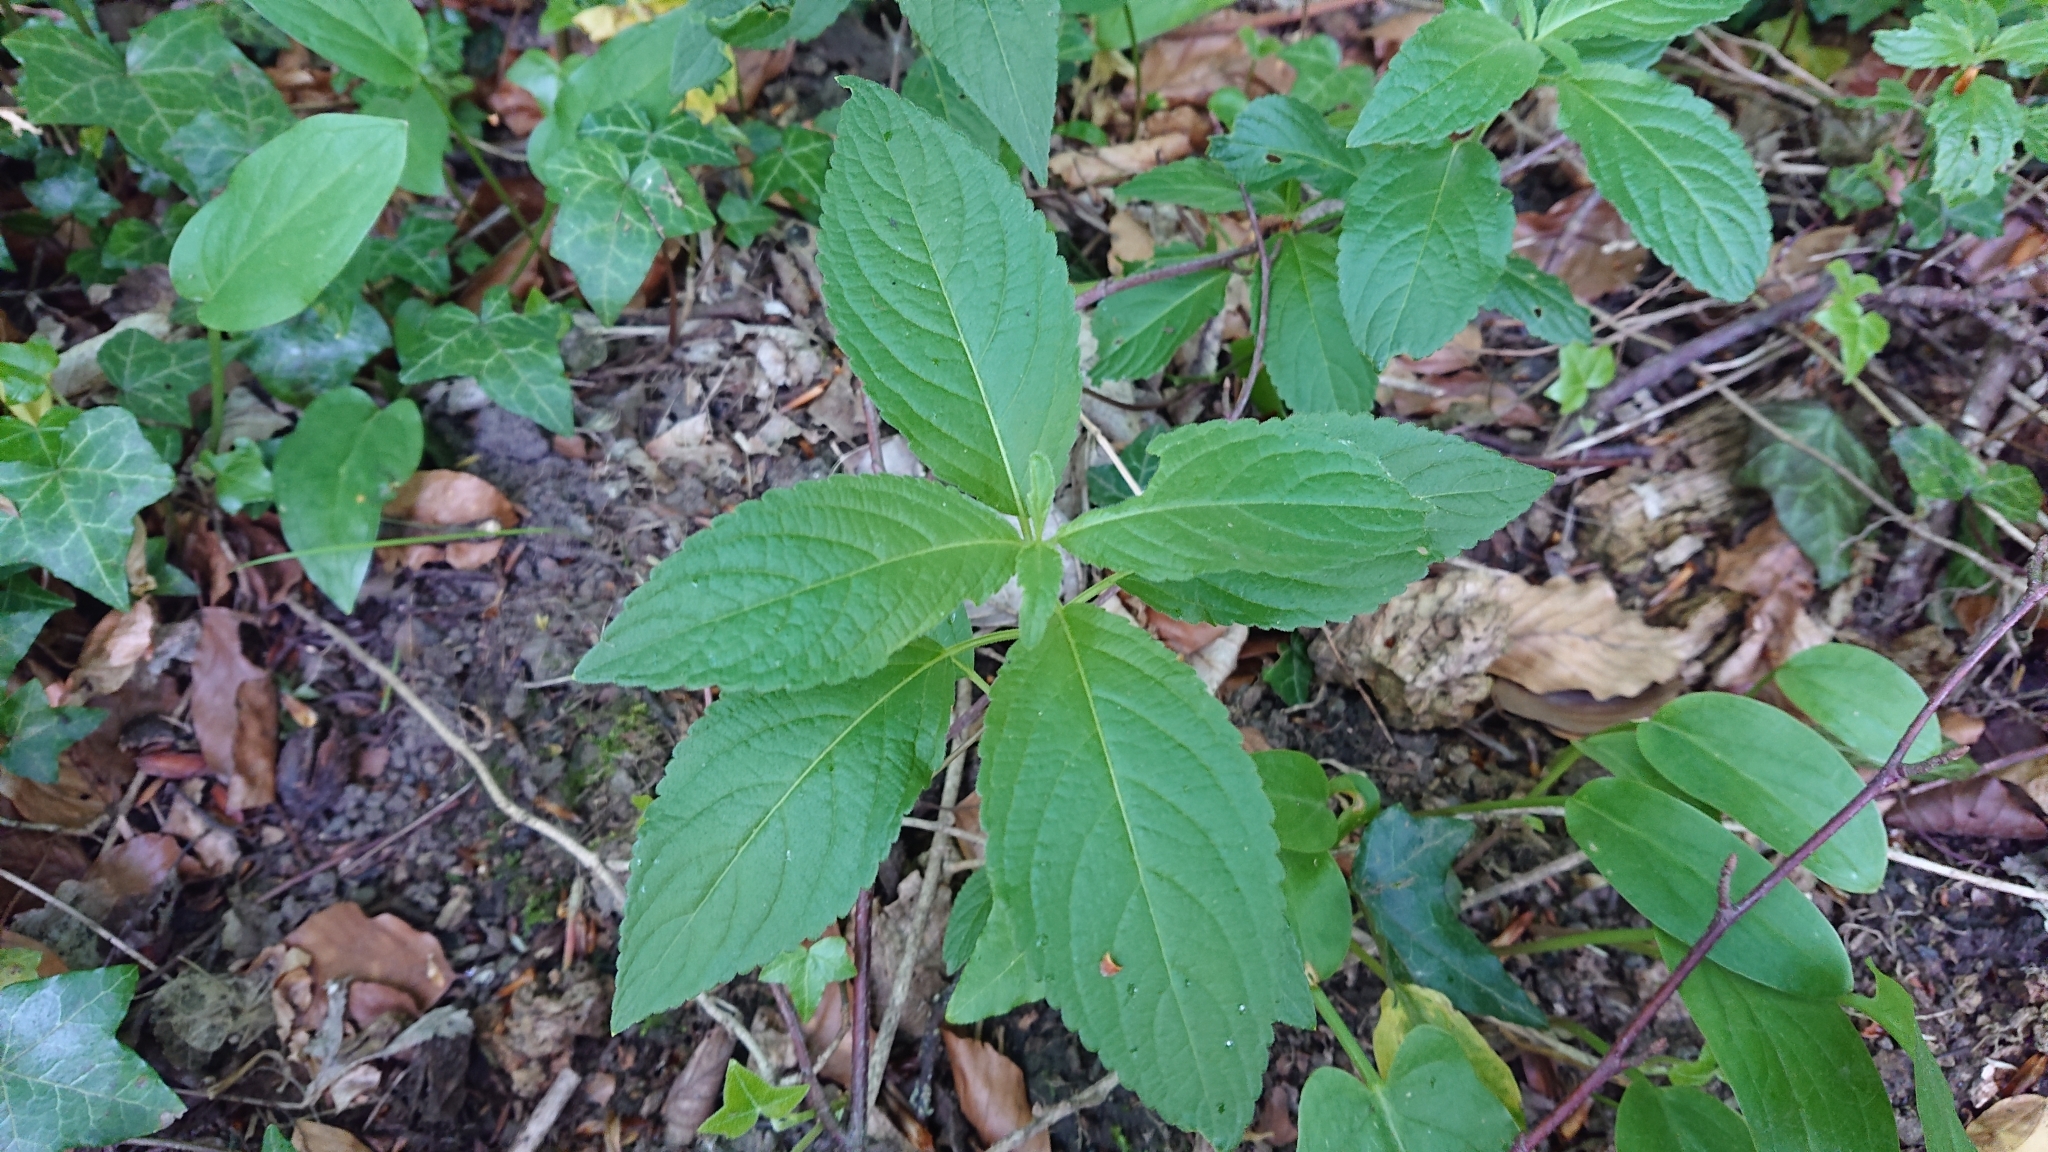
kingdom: Plantae
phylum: Tracheophyta
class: Magnoliopsida
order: Malpighiales
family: Euphorbiaceae
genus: Mercurialis
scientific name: Mercurialis perennis
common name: Dog mercury
